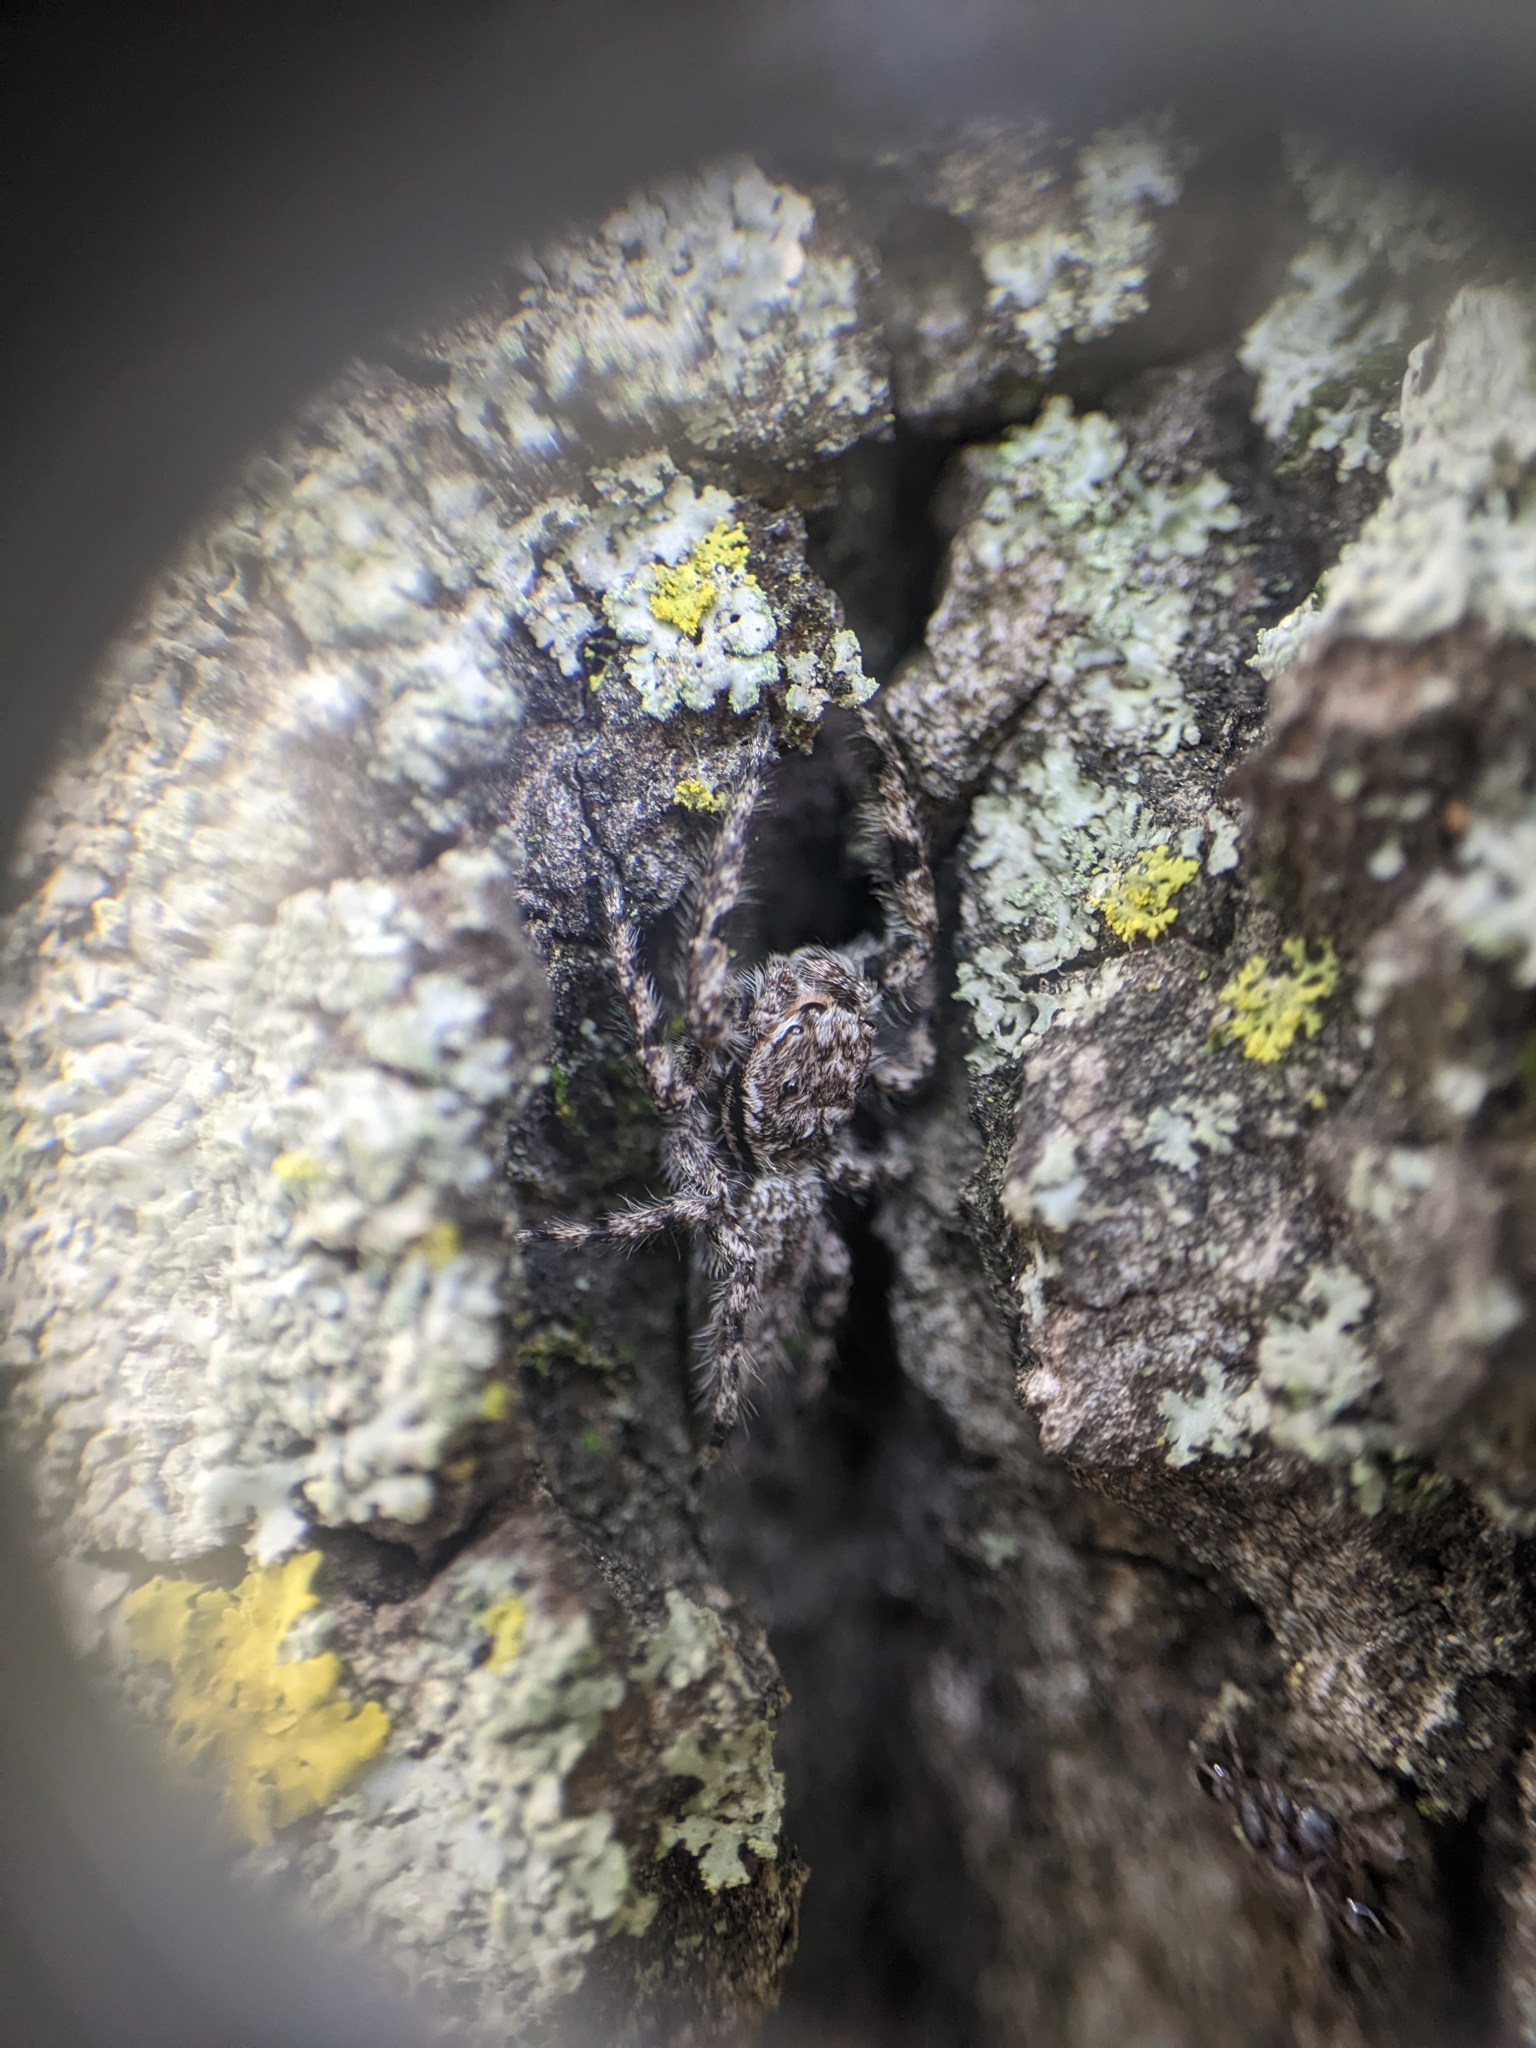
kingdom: Animalia
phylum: Arthropoda
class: Arachnida
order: Araneae
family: Salticidae
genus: Platycryptus
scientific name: Platycryptus undatus
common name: Tan jumping spider
